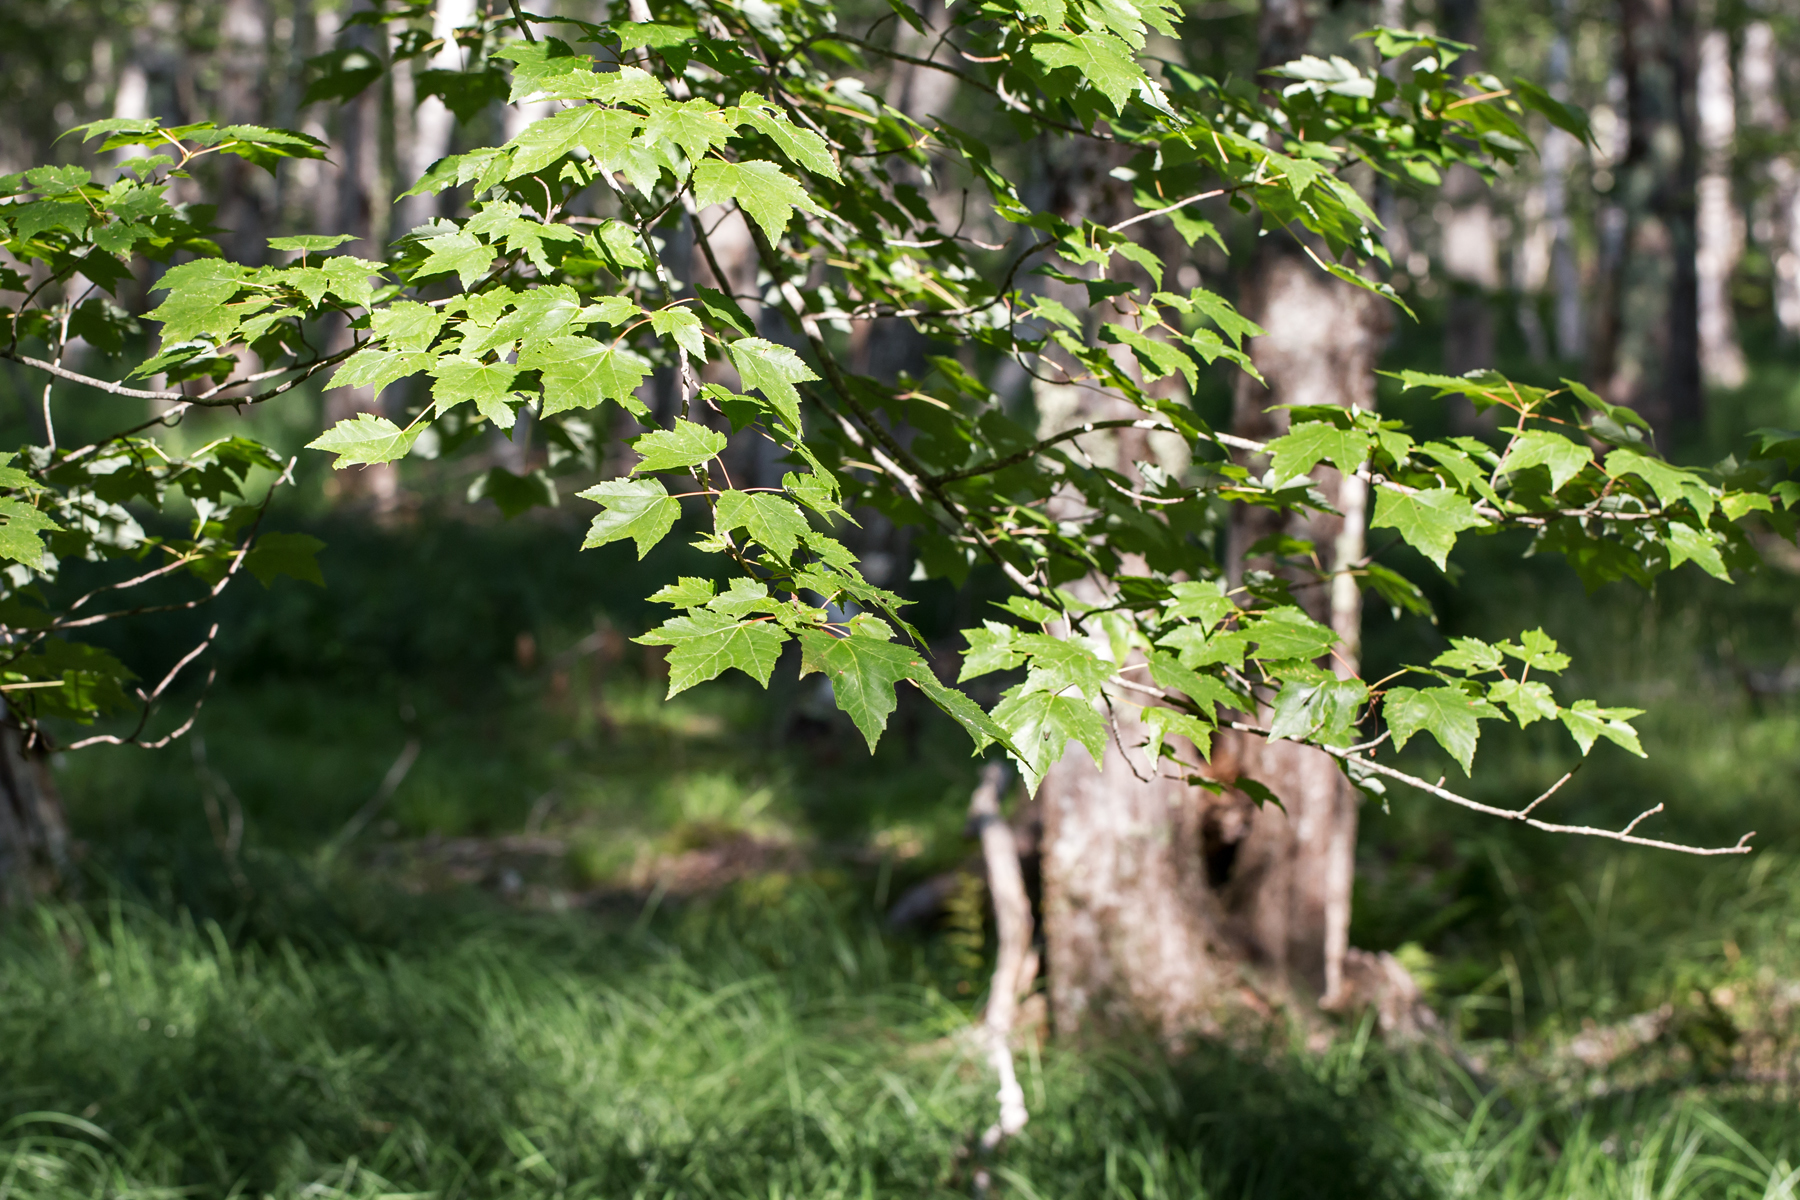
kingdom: Plantae
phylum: Tracheophyta
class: Magnoliopsida
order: Sapindales
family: Sapindaceae
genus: Acer
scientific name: Acer rubrum
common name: Red maple
